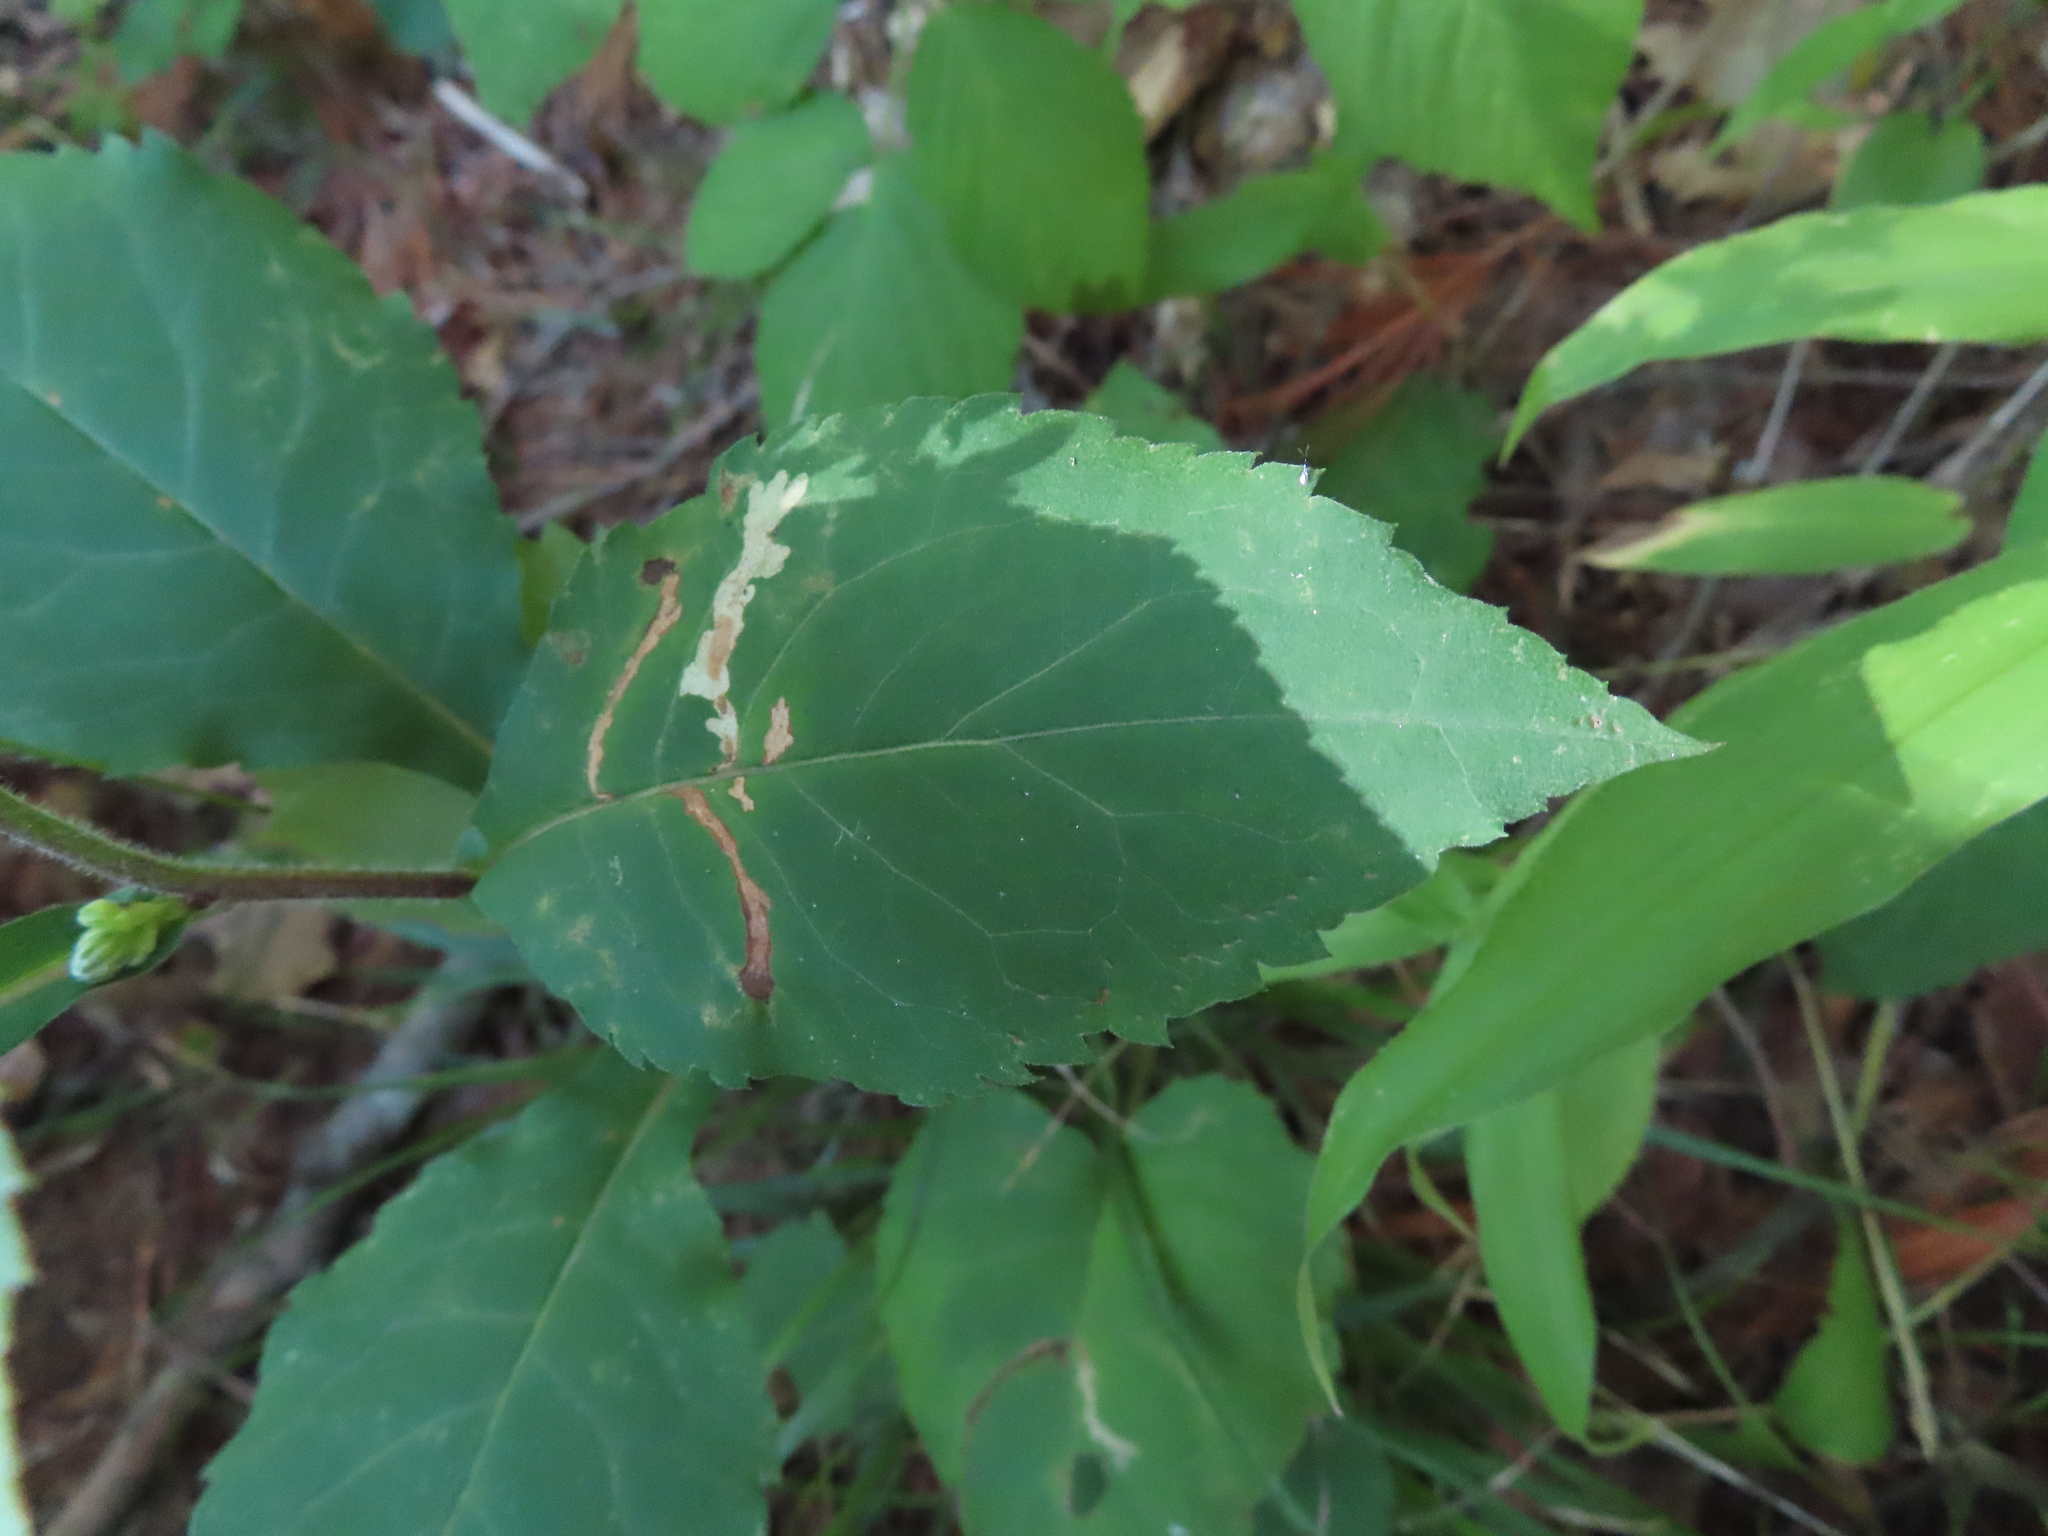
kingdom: Plantae
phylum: Tracheophyta
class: Magnoliopsida
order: Asterales
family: Asteraceae
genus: Eurybia
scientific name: Eurybia macrophylla
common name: Big-leaved aster
